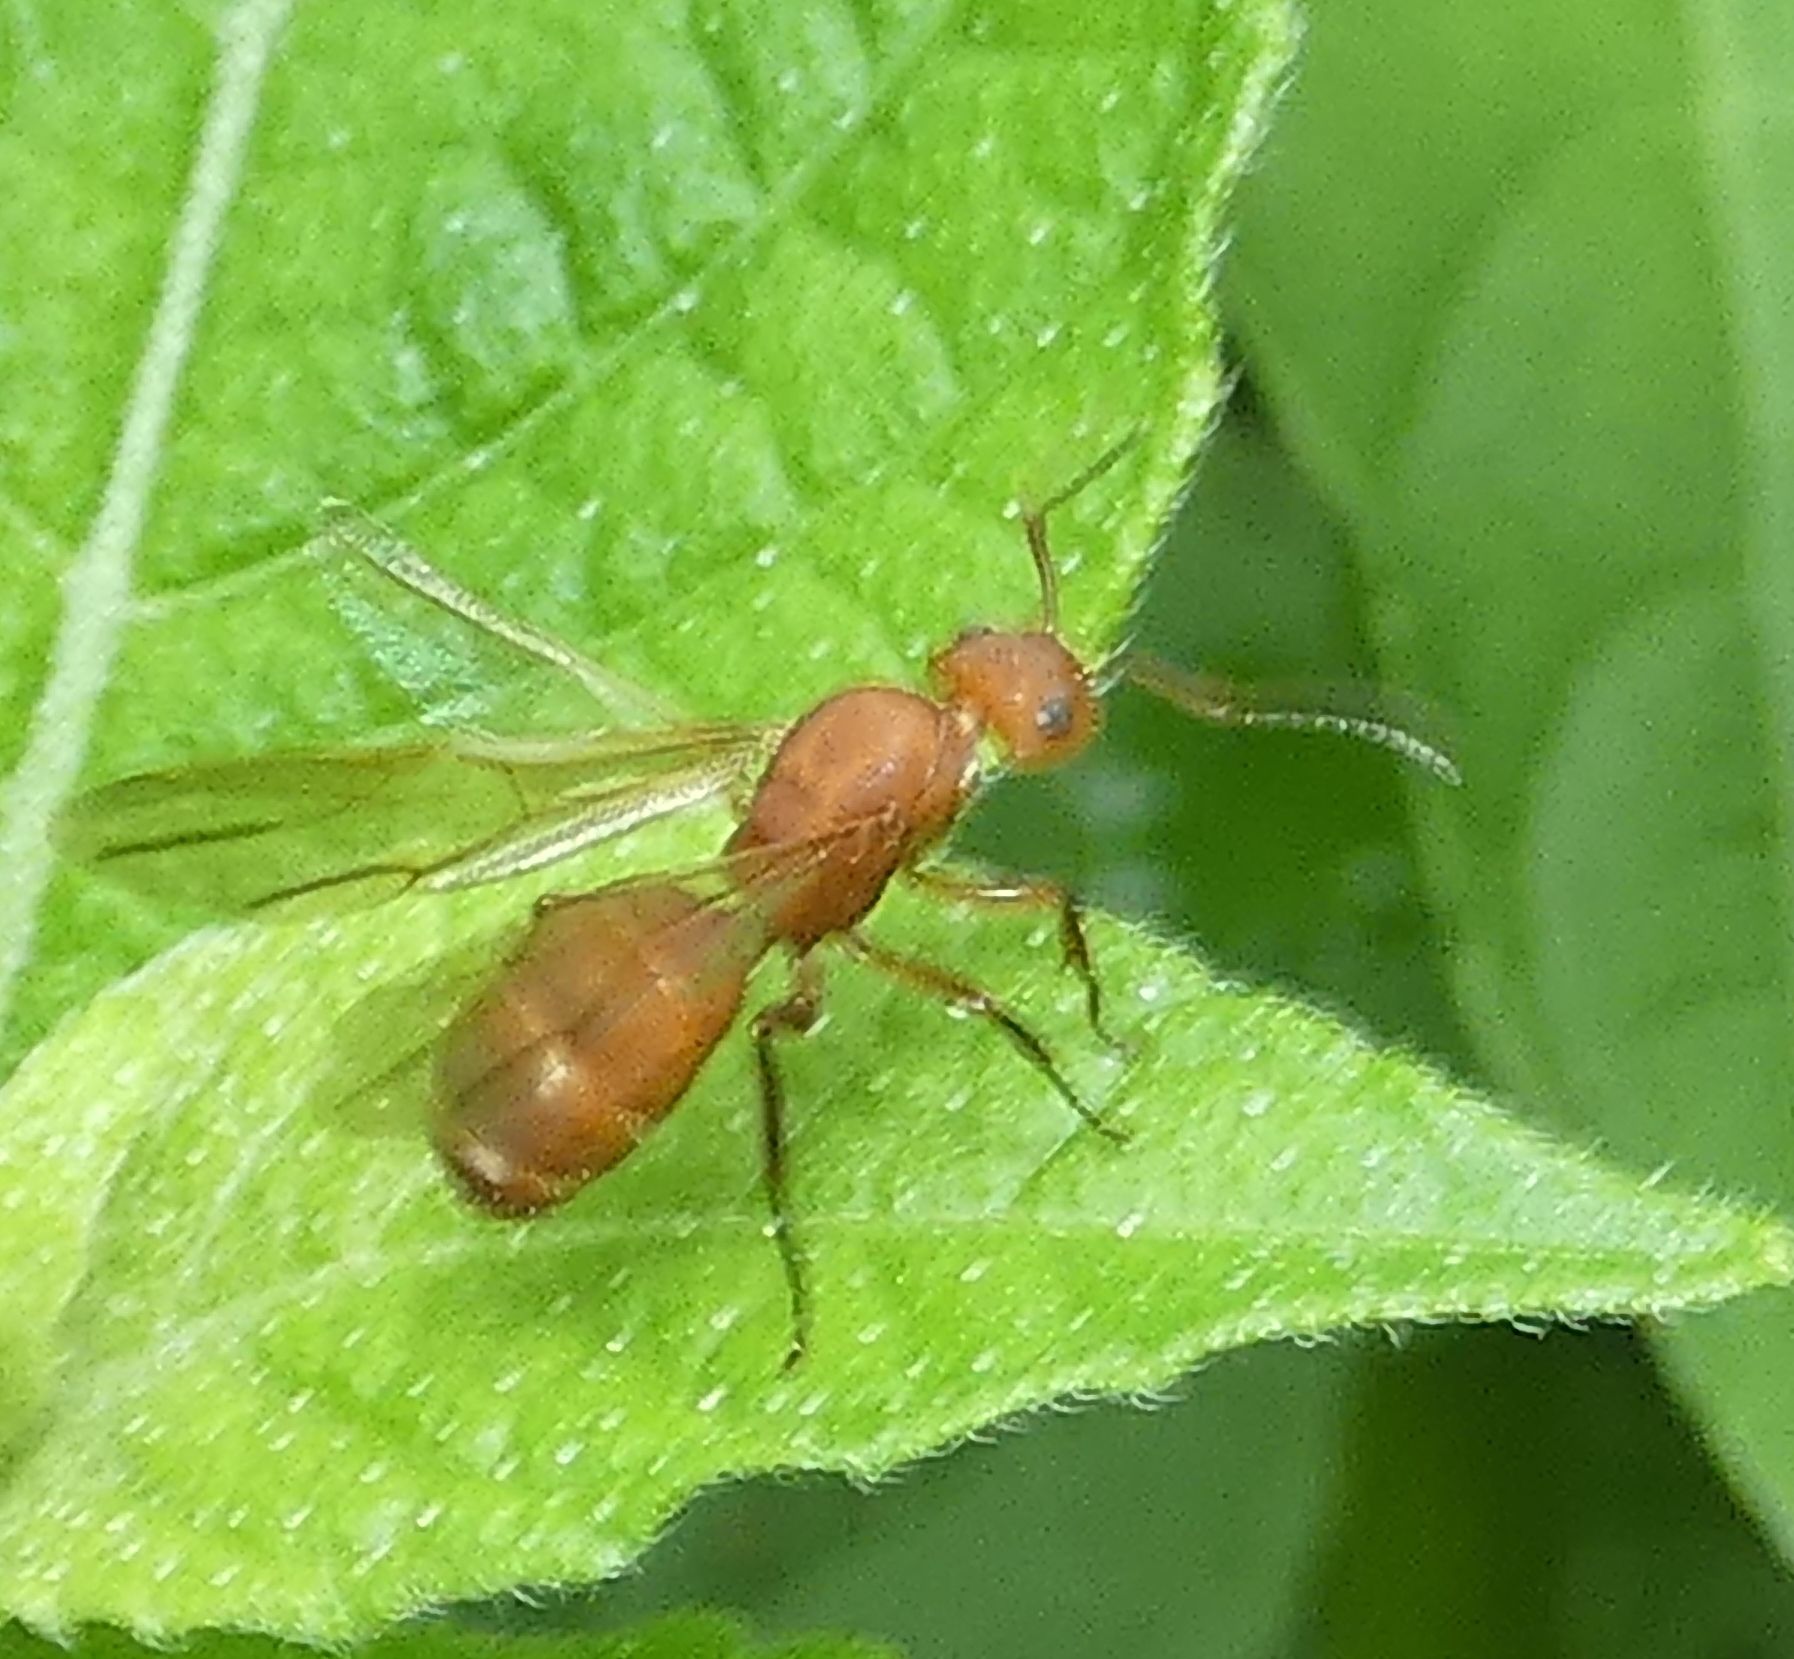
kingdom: Animalia
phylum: Arthropoda
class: Insecta
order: Hymenoptera
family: Formicidae
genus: Camponotus
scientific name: Camponotus rectangularis
